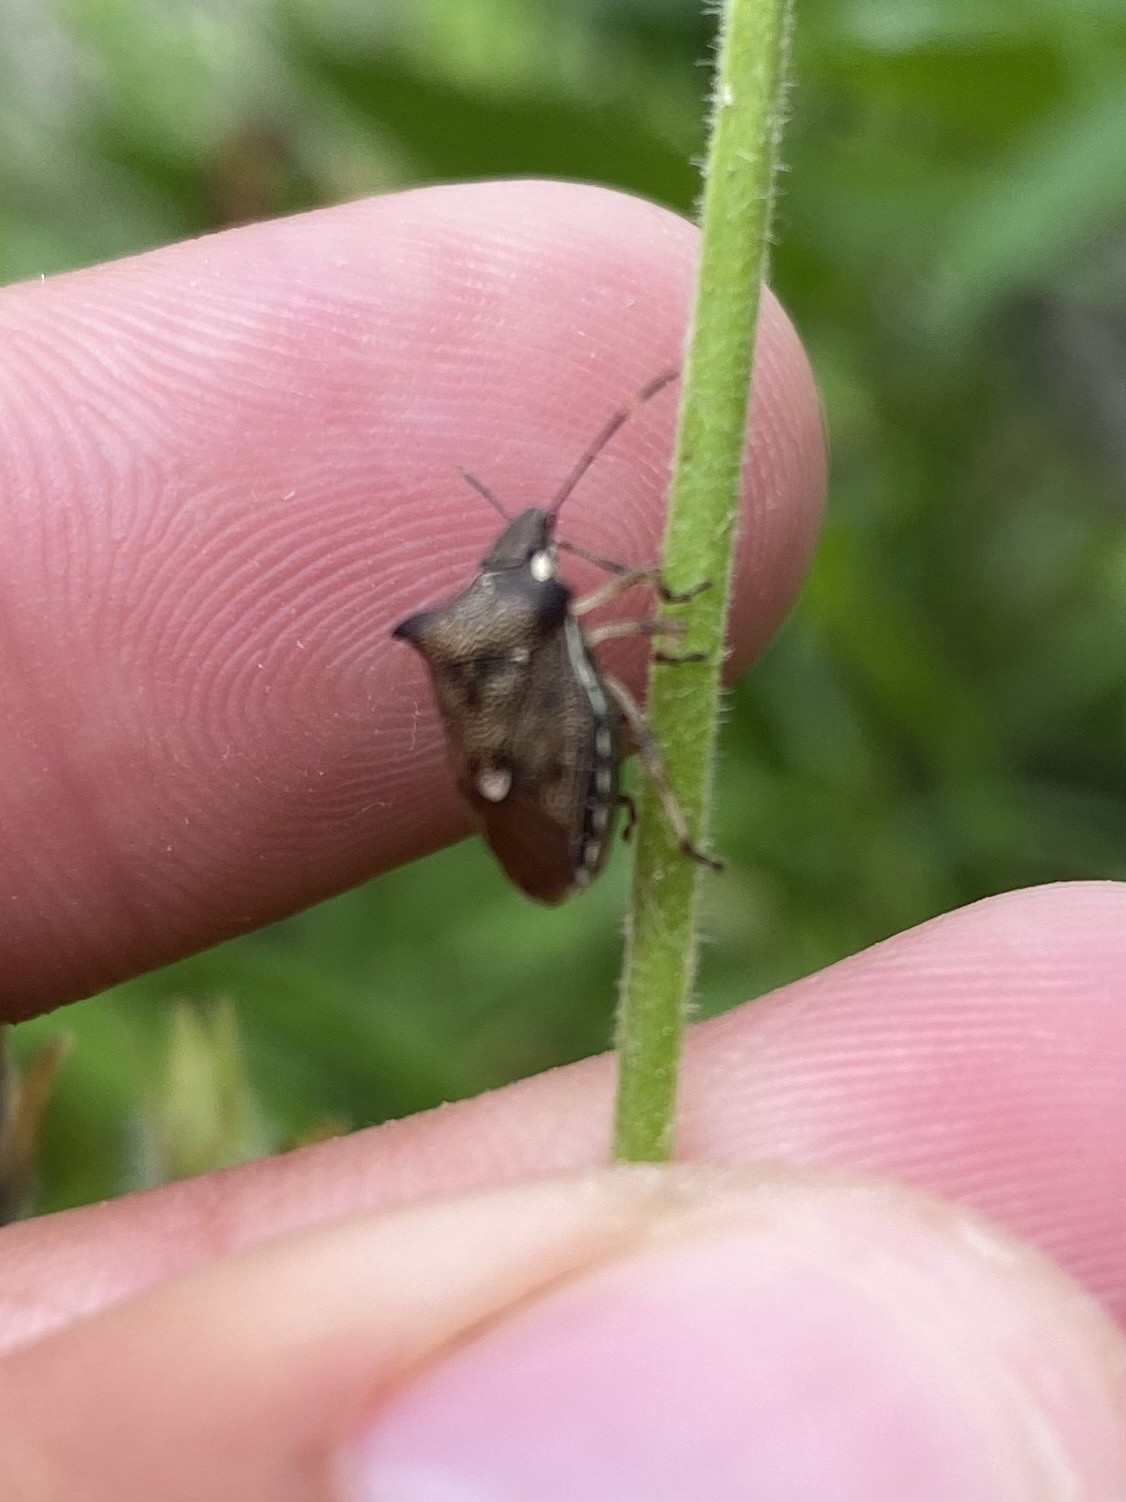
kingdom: Animalia
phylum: Arthropoda
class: Insecta
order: Hemiptera
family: Pentatomidae
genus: Carbula
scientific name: Carbula
